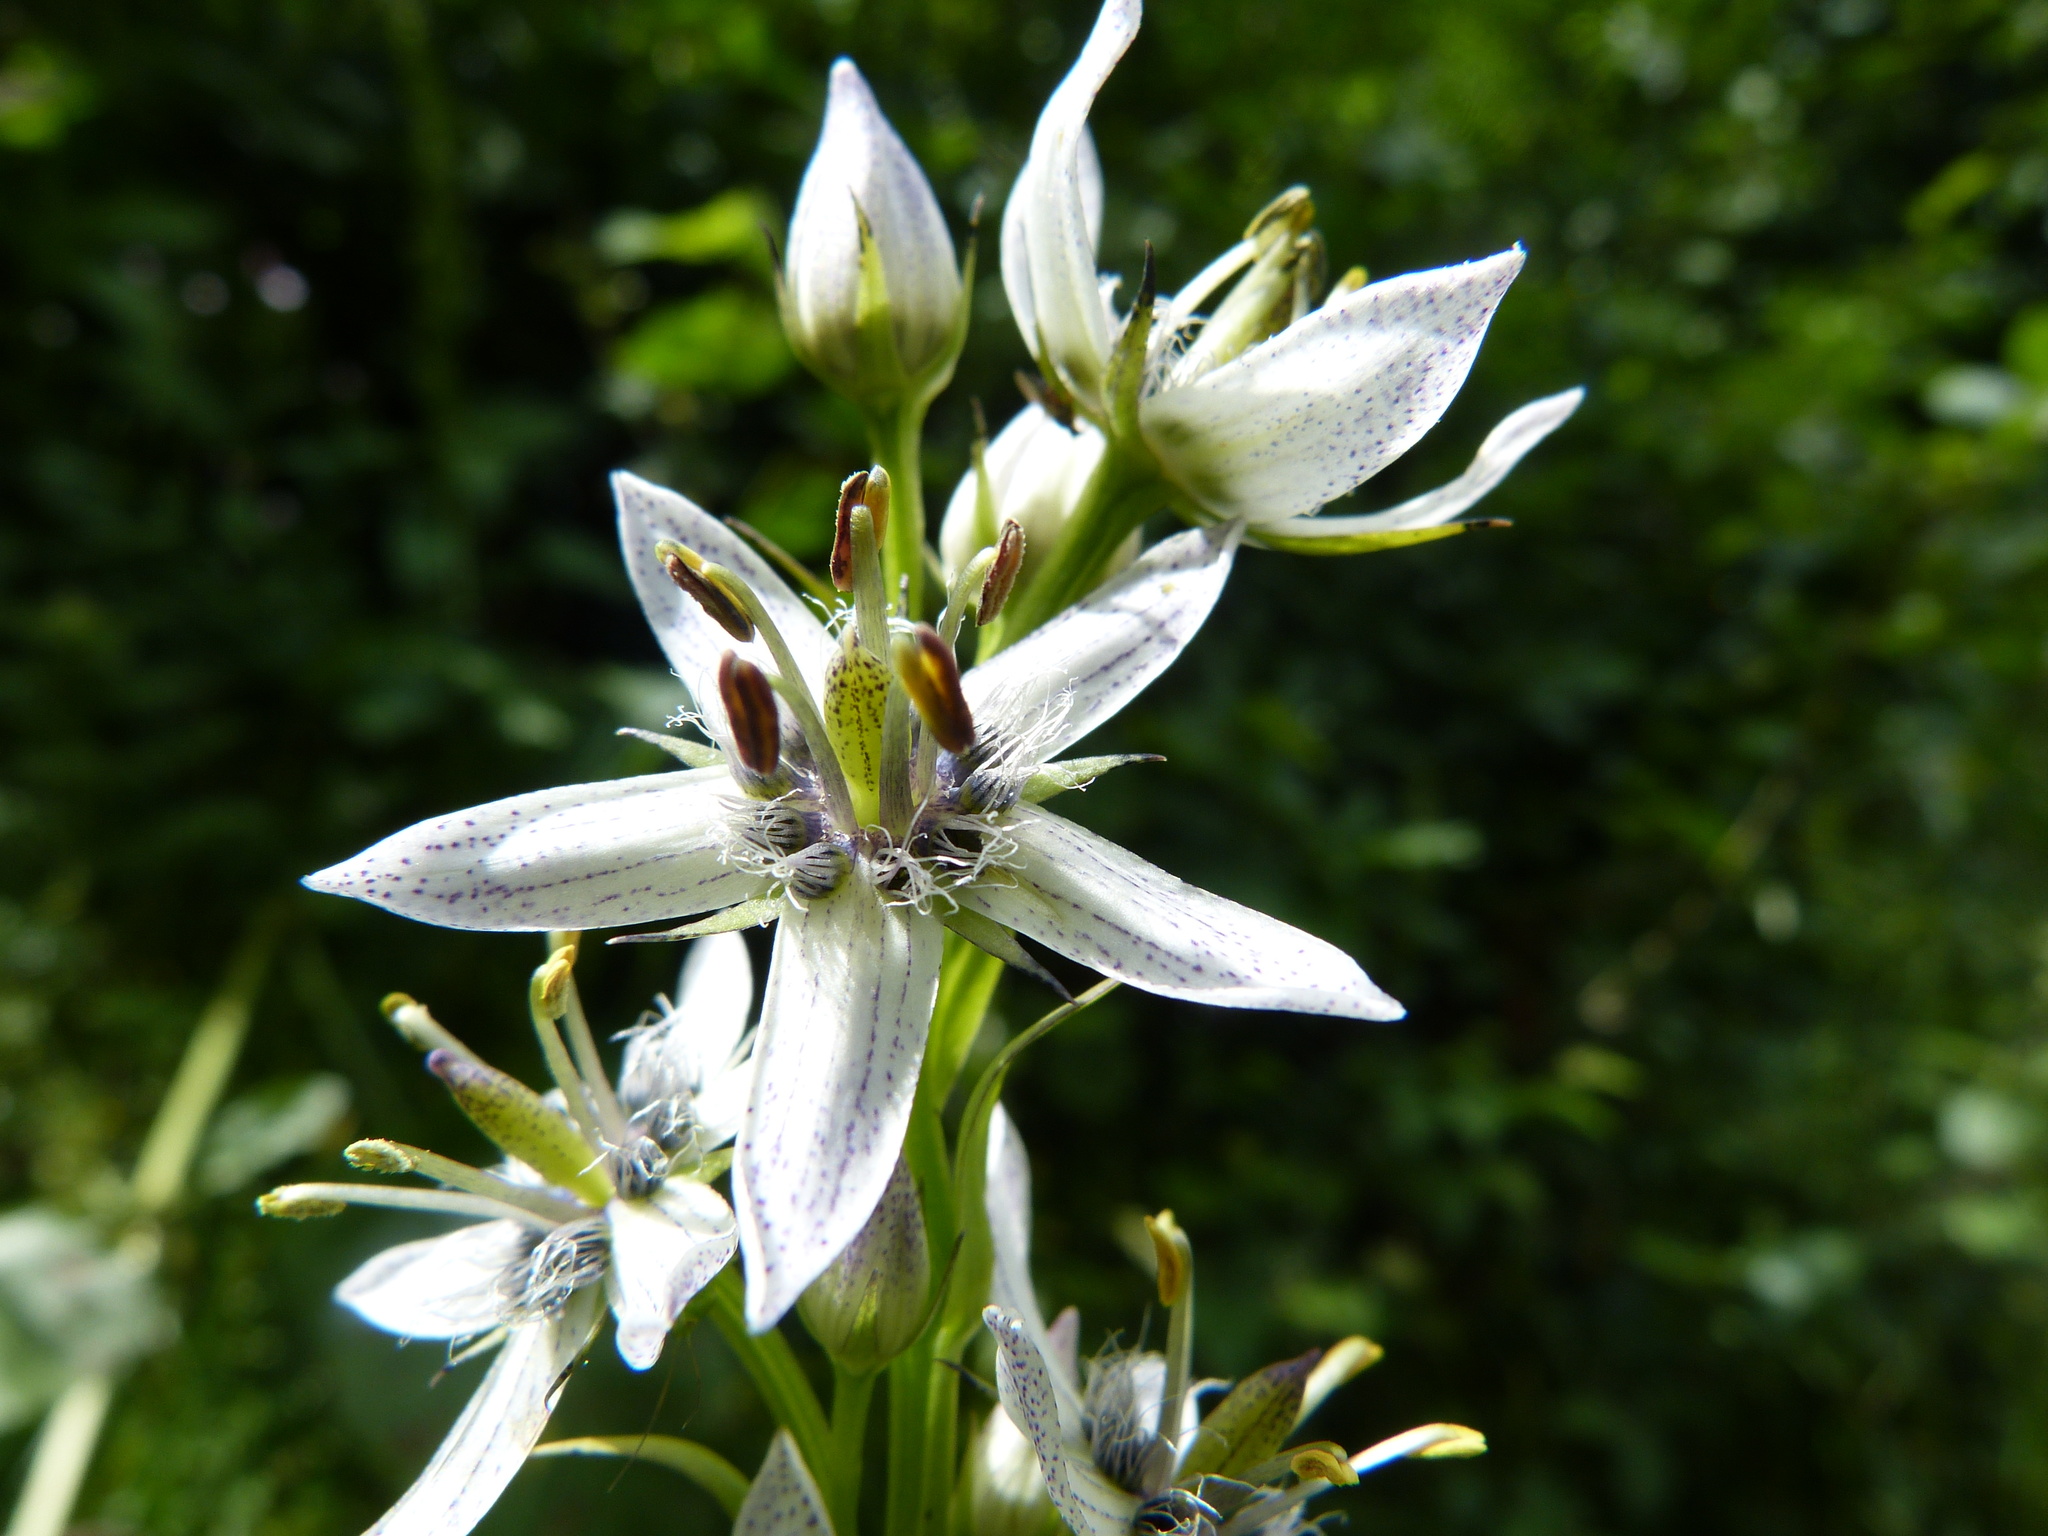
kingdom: Plantae
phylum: Tracheophyta
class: Magnoliopsida
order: Gentianales
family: Gentianaceae
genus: Swertia
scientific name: Swertia iberica
